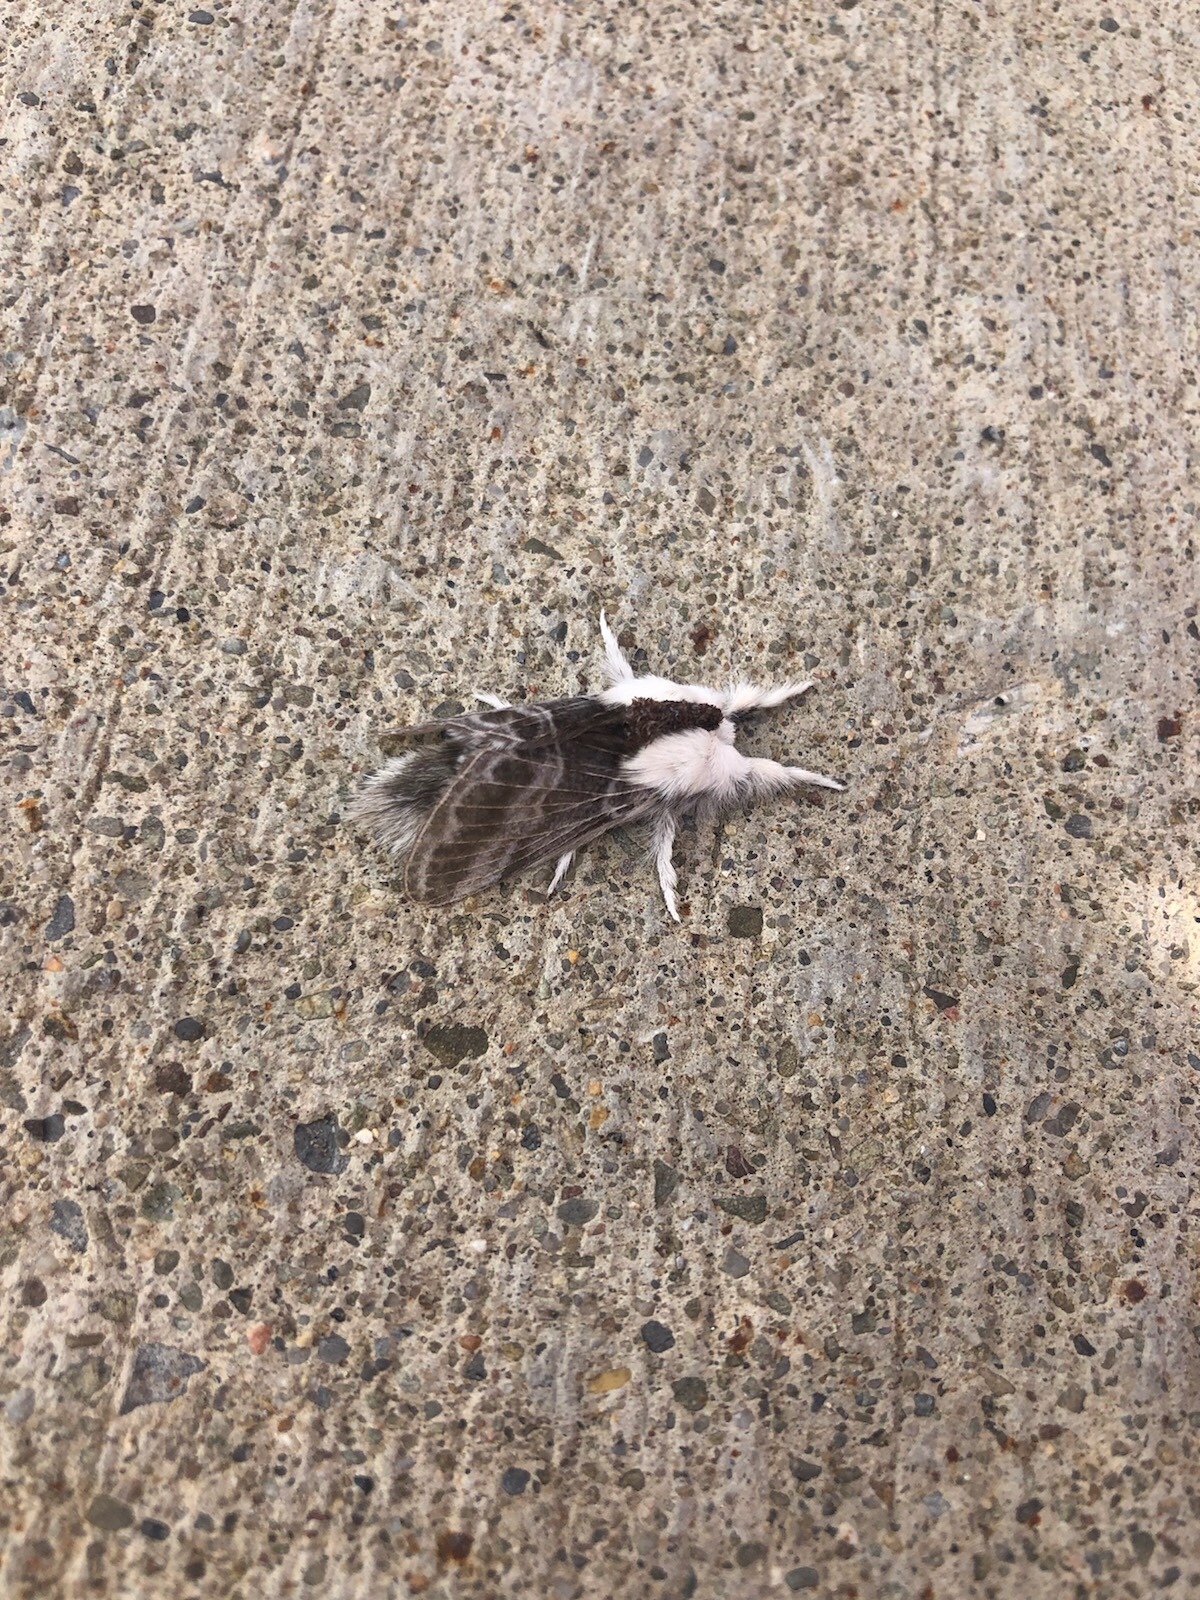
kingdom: Animalia
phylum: Arthropoda
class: Insecta
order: Lepidoptera
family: Lasiocampidae
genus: Tolype
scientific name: Tolype velleda
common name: Large tolype moth
